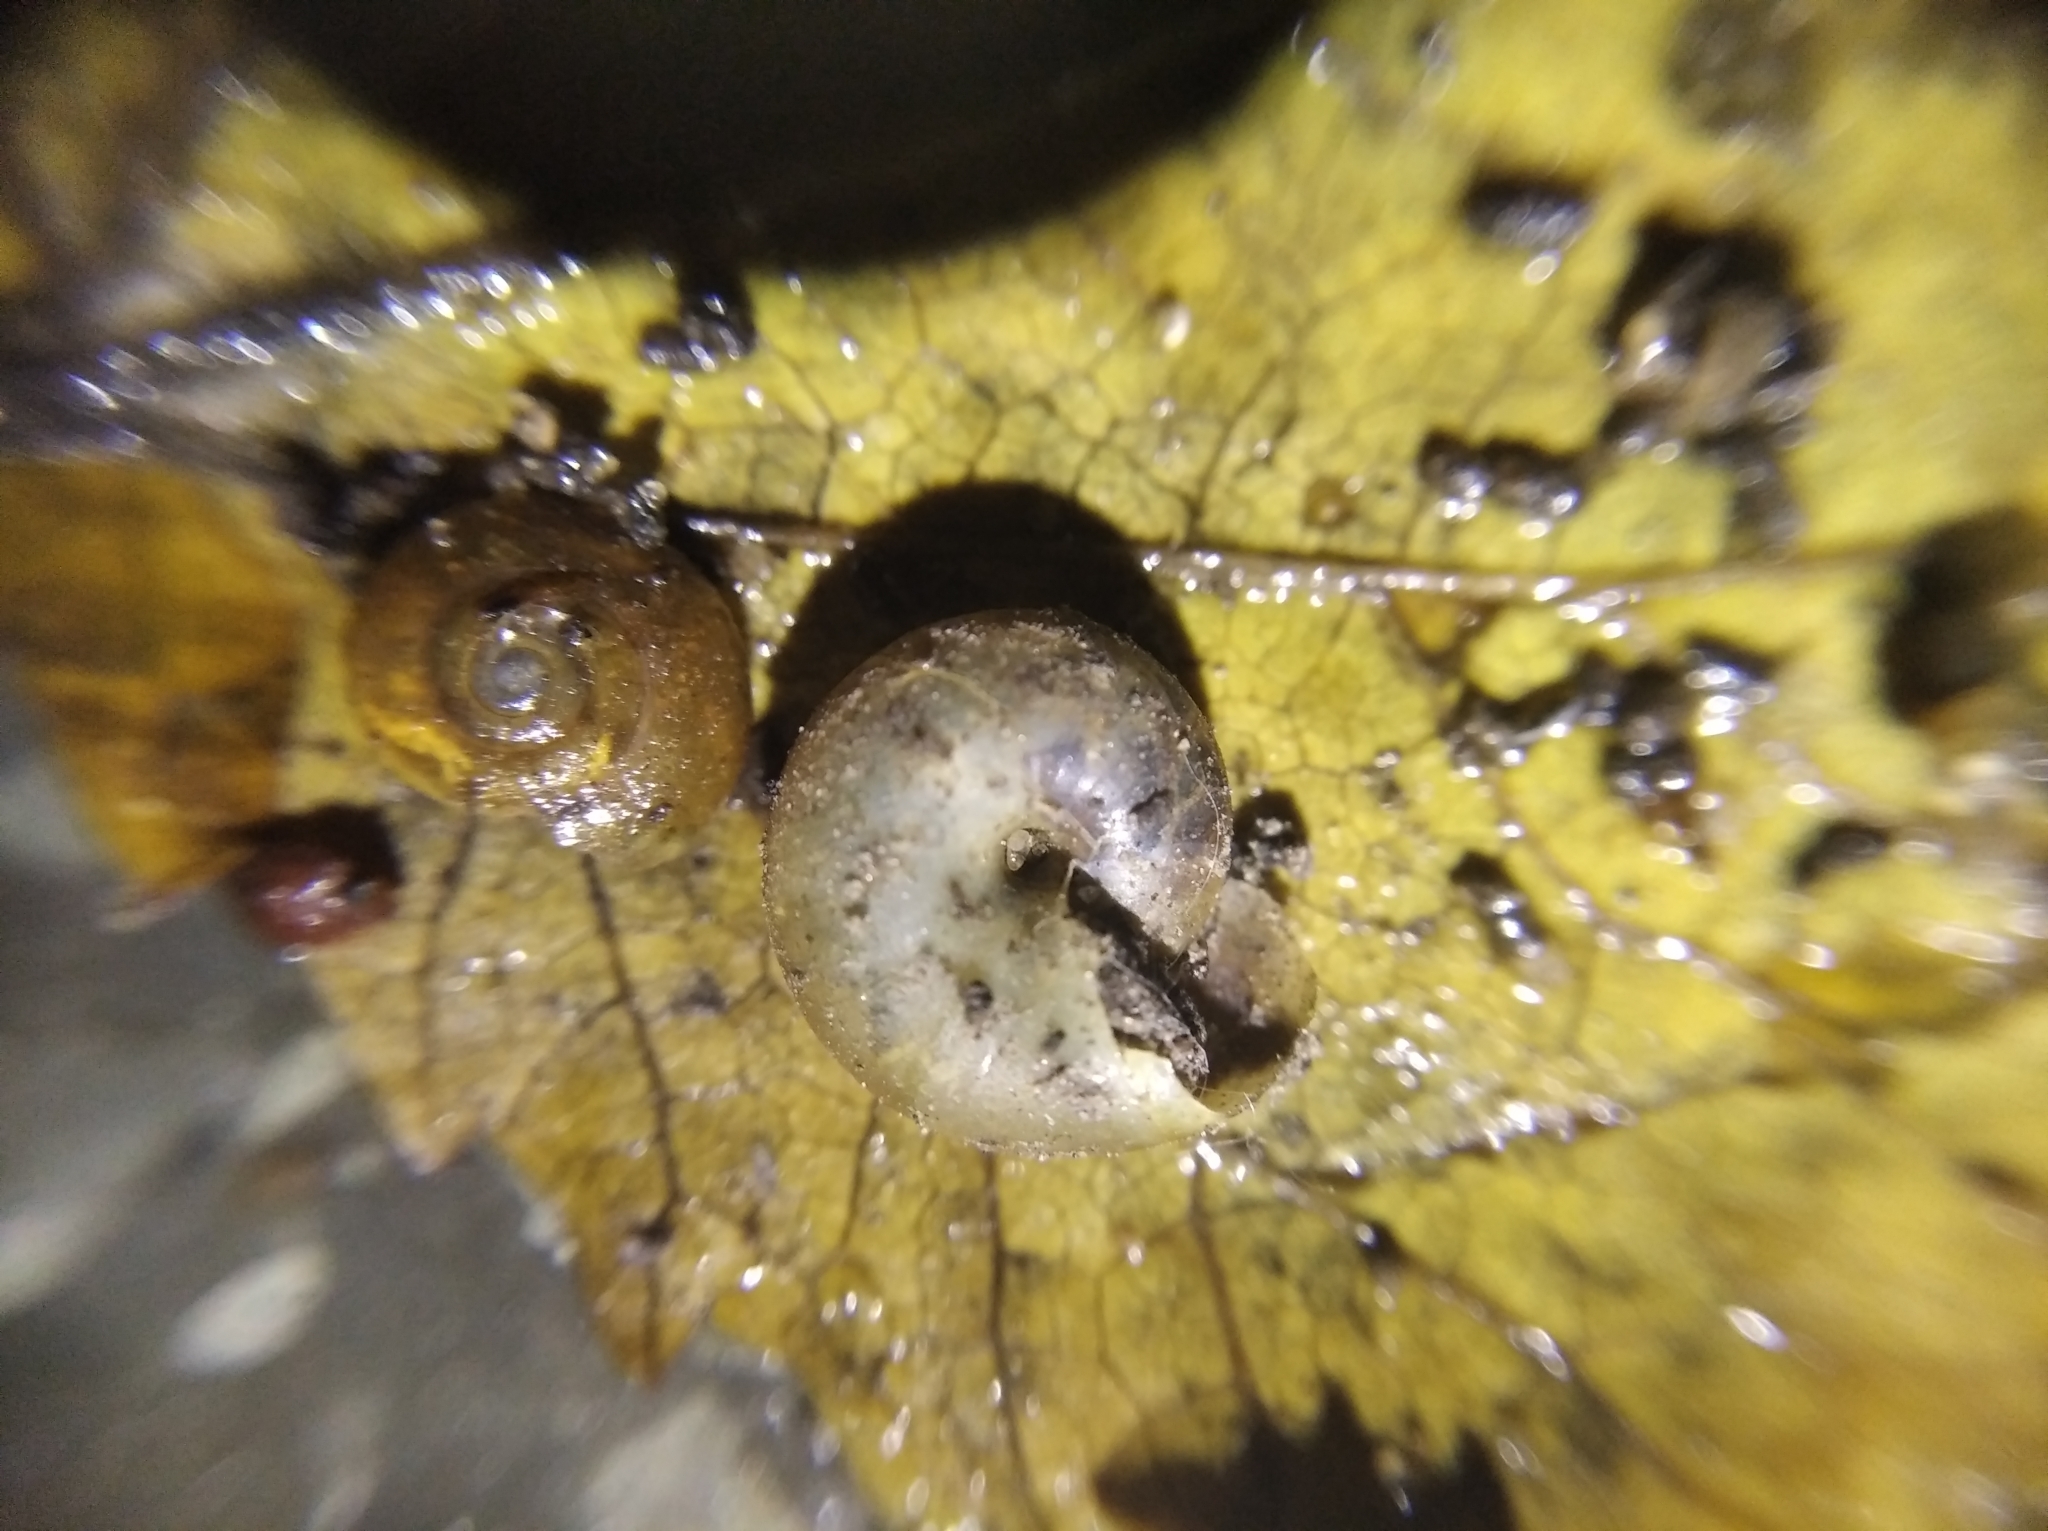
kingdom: Animalia
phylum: Mollusca
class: Gastropoda
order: Stylommatophora
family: Oxychilidae
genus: Oxychilus
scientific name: Oxychilus translucidus
